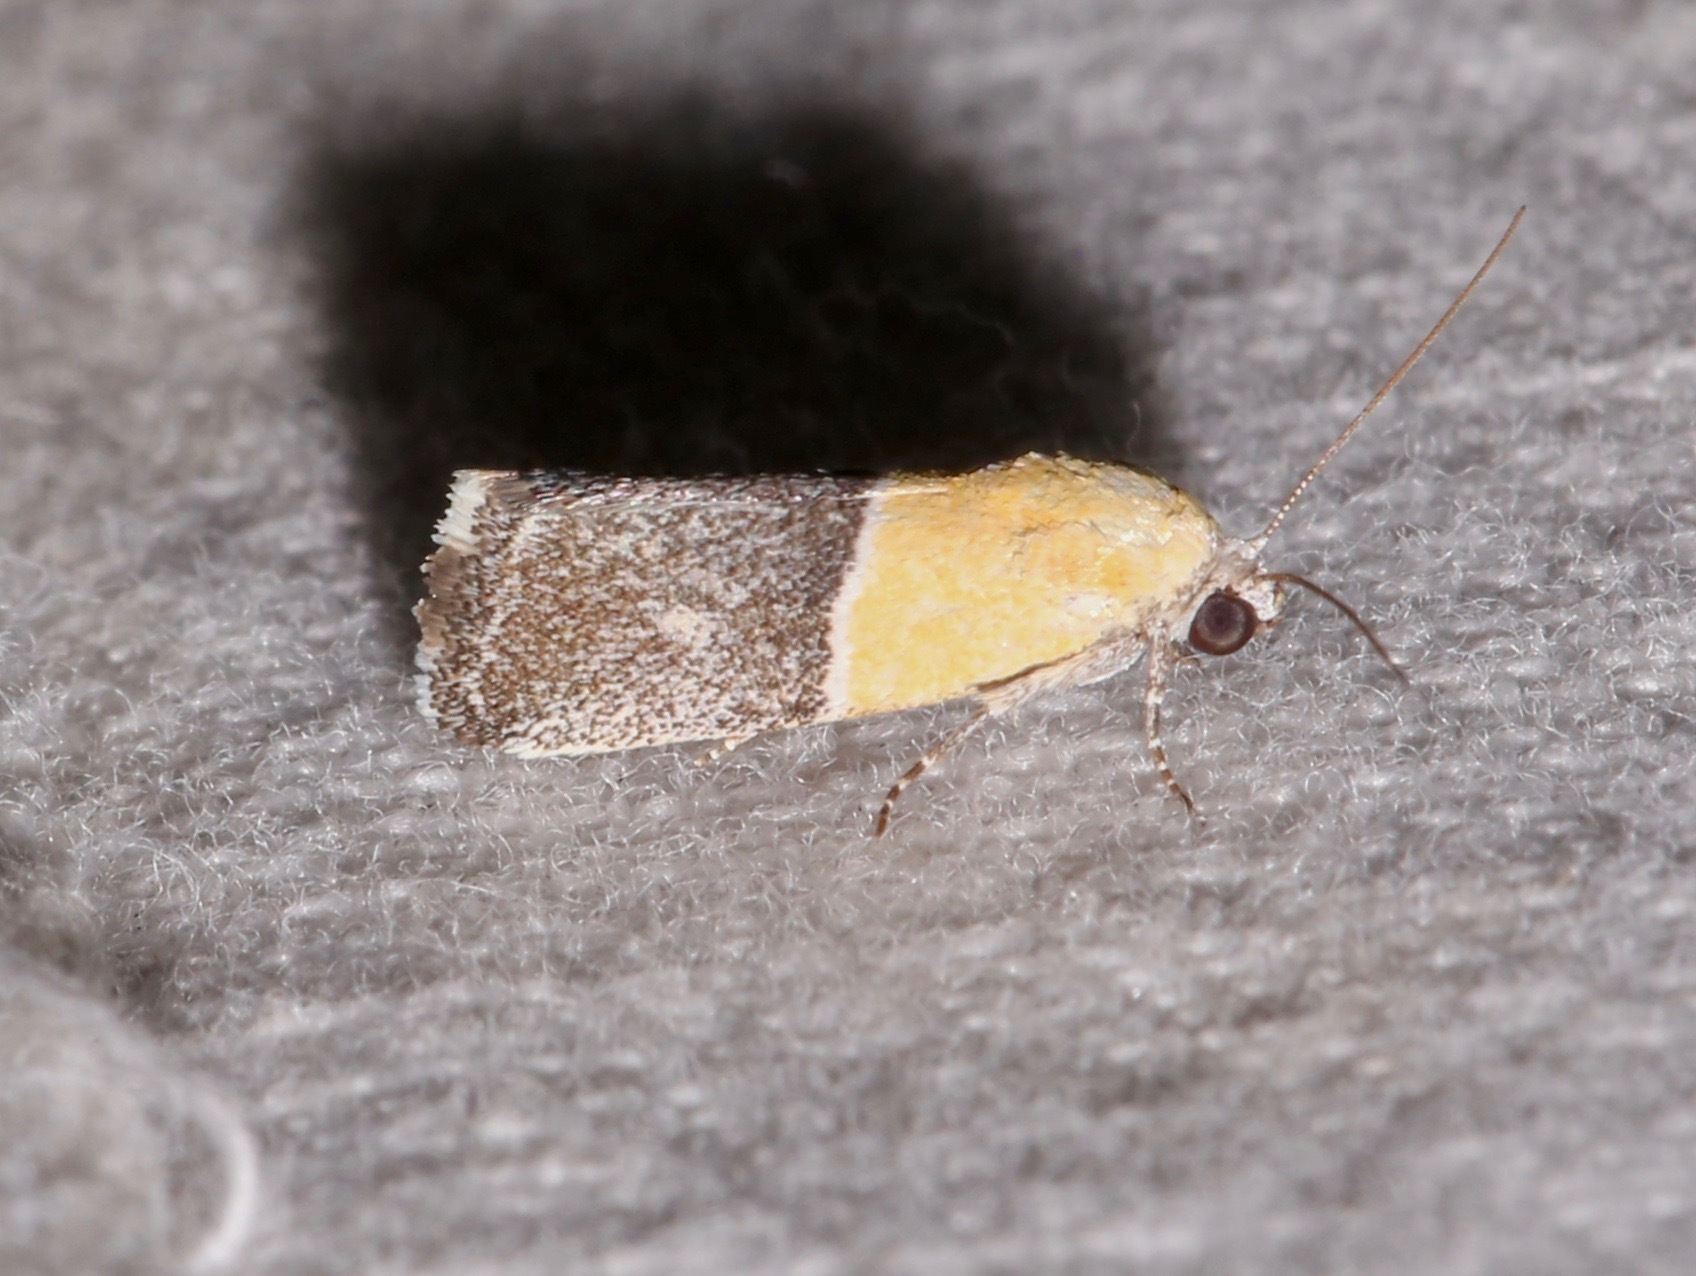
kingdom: Animalia
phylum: Arthropoda
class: Insecta
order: Lepidoptera
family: Noctuidae
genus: Acontia
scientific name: Acontia clausula
